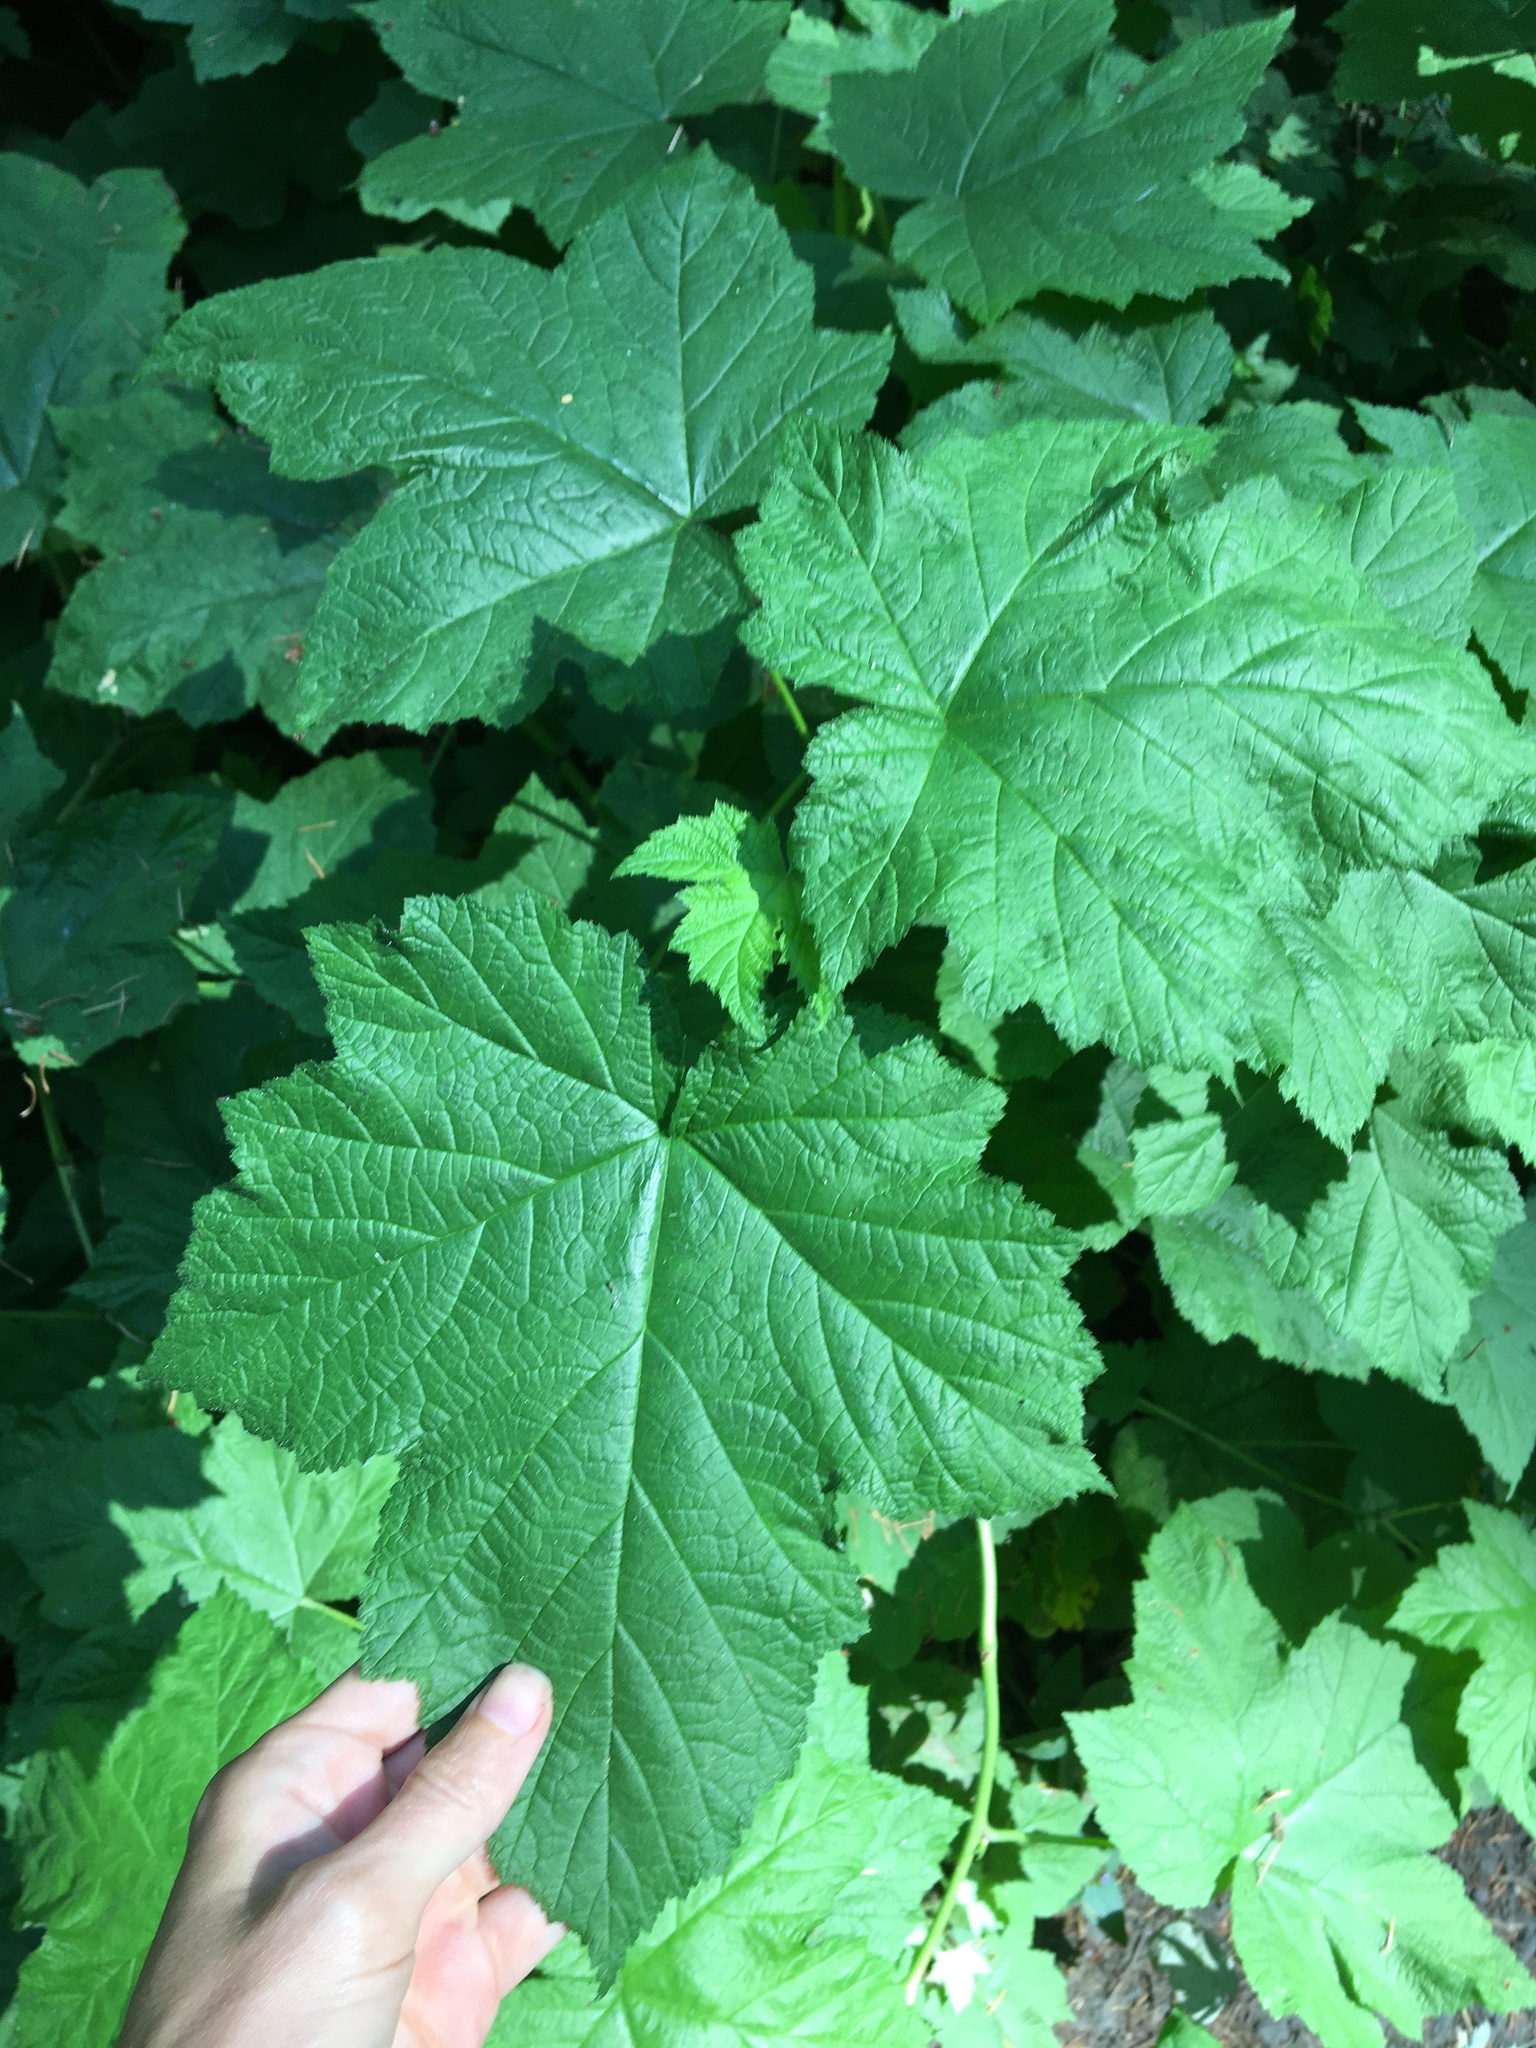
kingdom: Plantae
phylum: Tracheophyta
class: Magnoliopsida
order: Rosales
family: Rosaceae
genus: Rubus
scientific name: Rubus parviflorus
